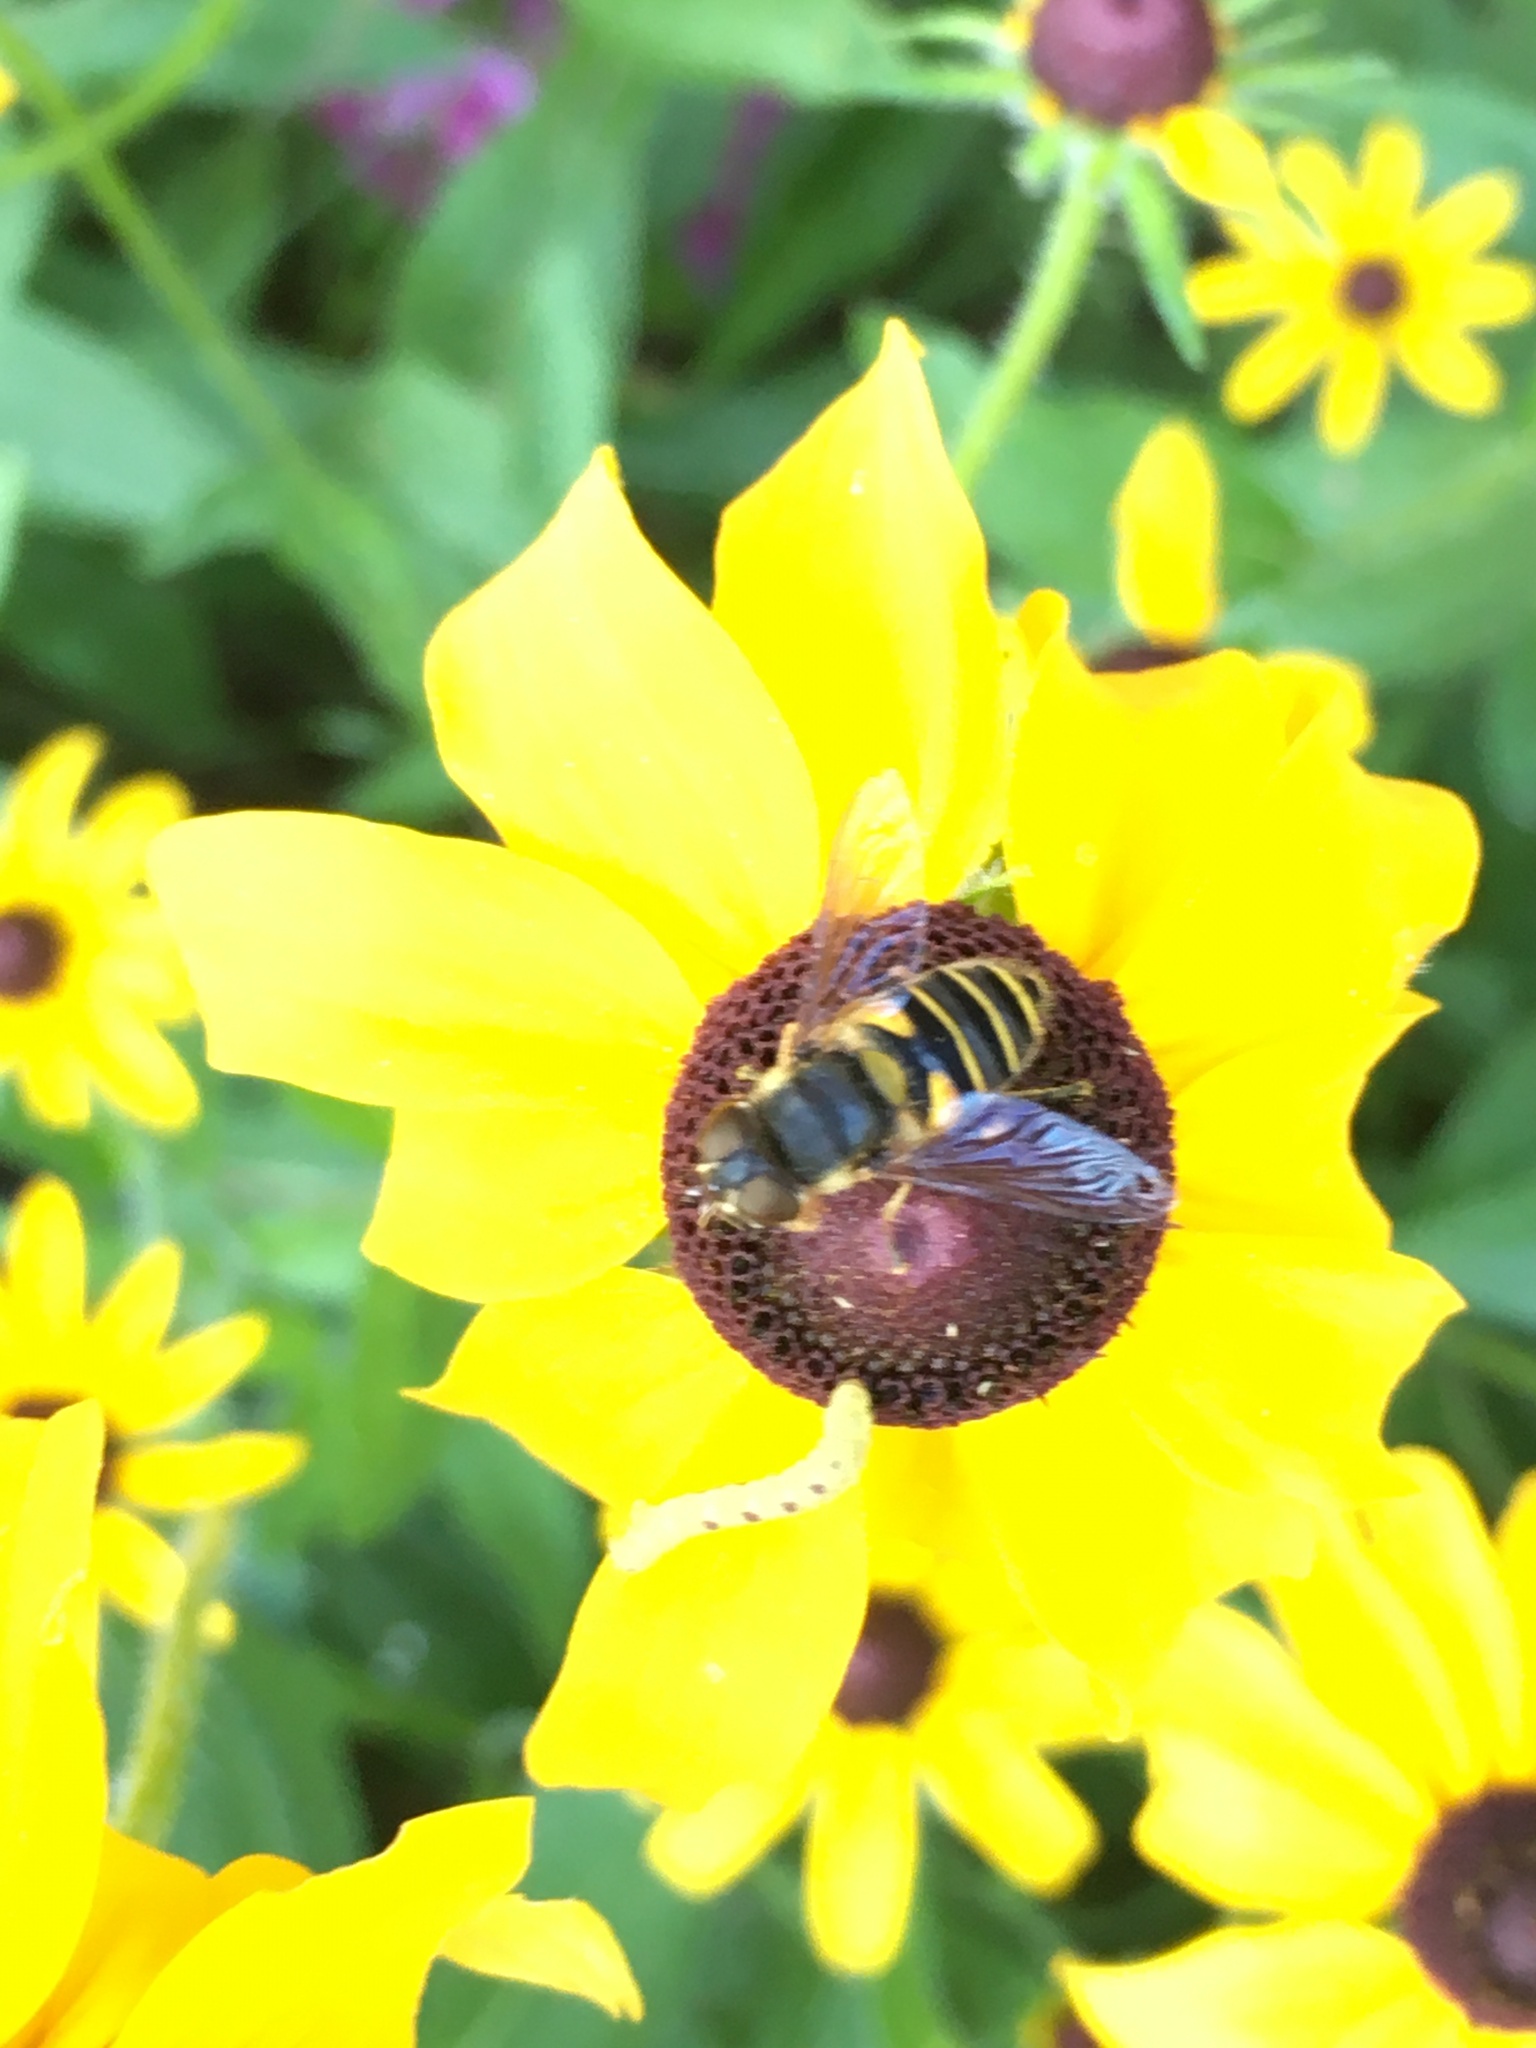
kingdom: Animalia
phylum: Arthropoda
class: Insecta
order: Diptera
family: Syrphidae
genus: Eristalis
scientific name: Eristalis transversa
